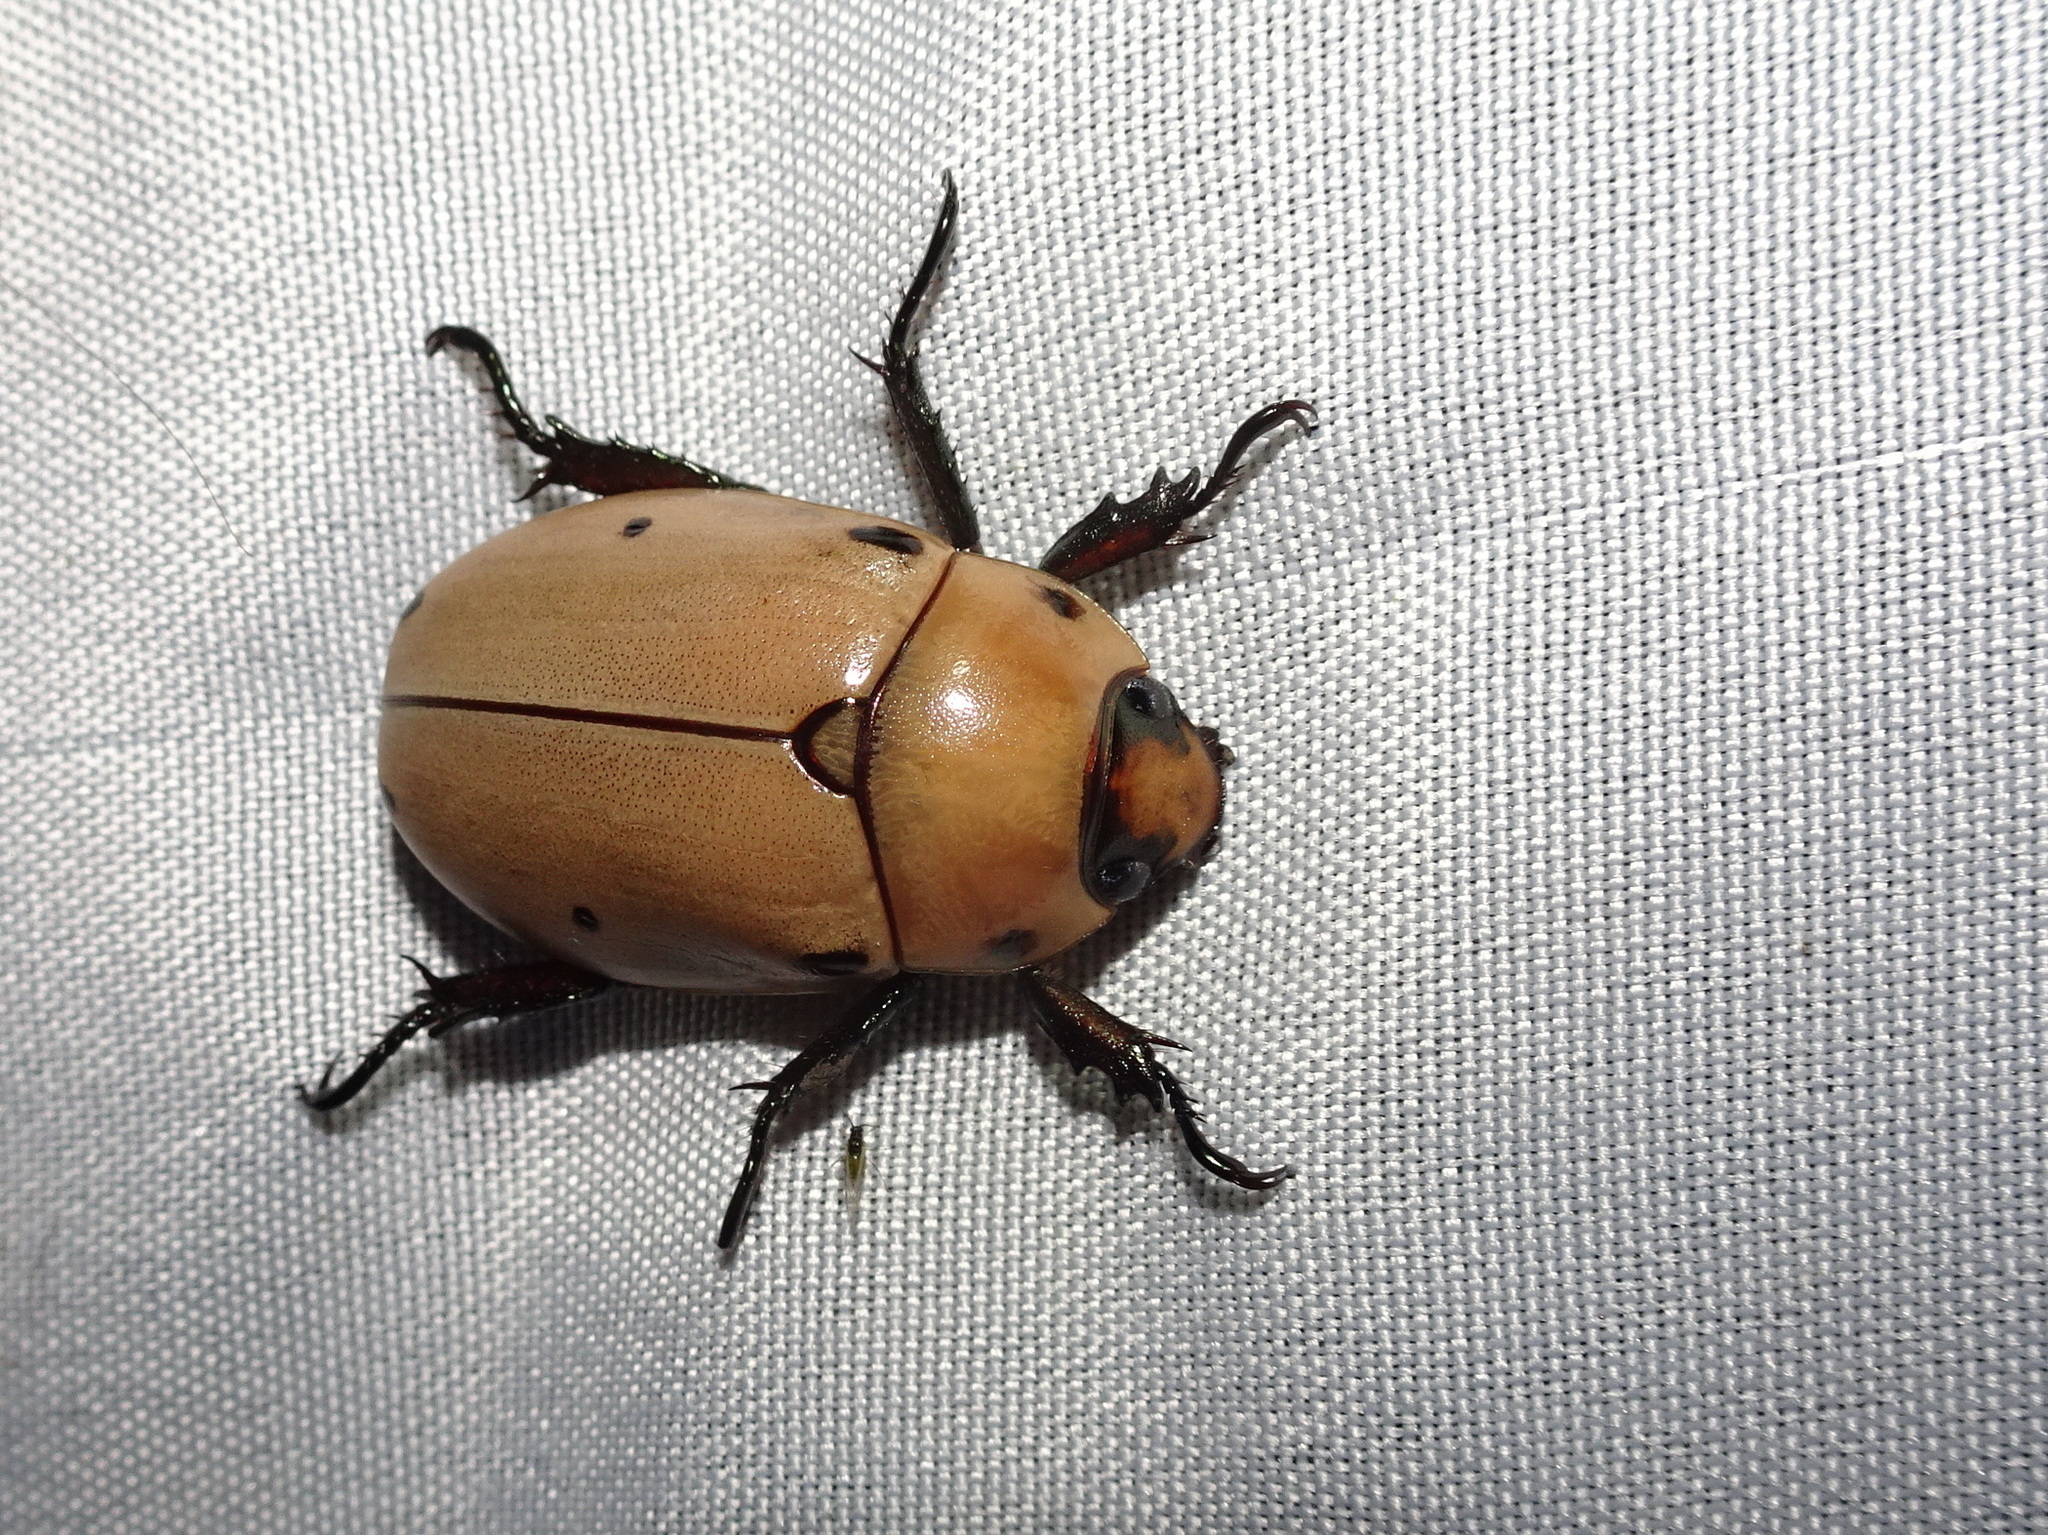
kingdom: Animalia
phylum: Arthropoda
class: Insecta
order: Coleoptera
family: Scarabaeidae
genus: Pelidnota
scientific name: Pelidnota punctata
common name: Grapevine beetle
